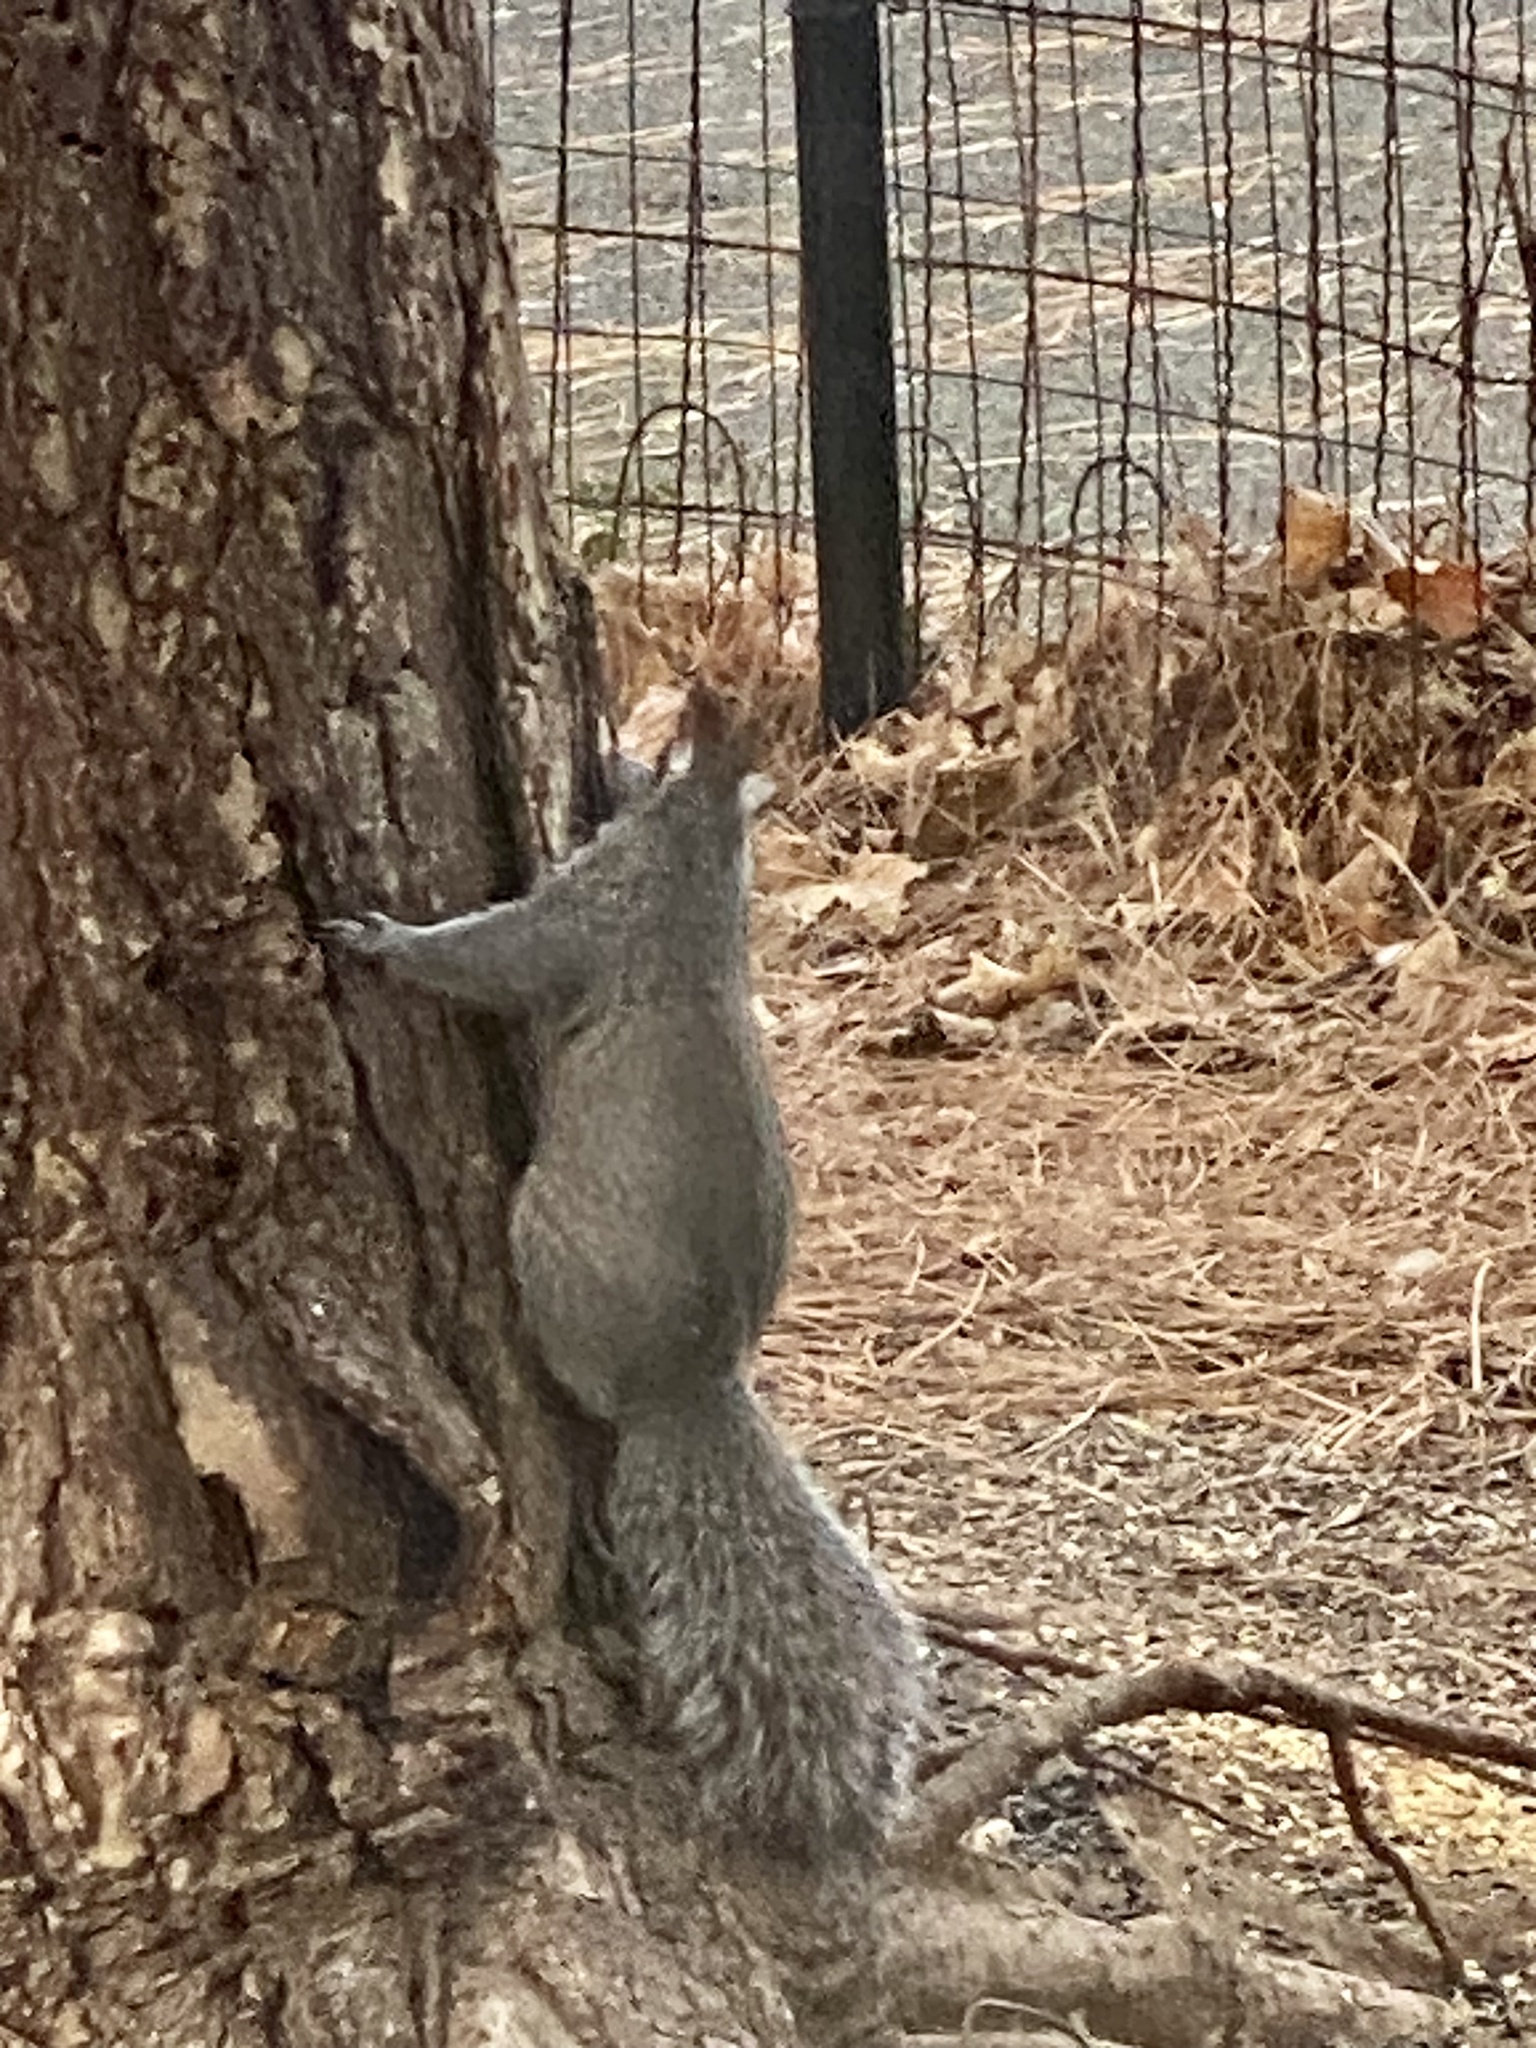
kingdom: Animalia
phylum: Chordata
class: Mammalia
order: Rodentia
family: Sciuridae
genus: Sciurus
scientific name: Sciurus carolinensis
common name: Eastern gray squirrel
